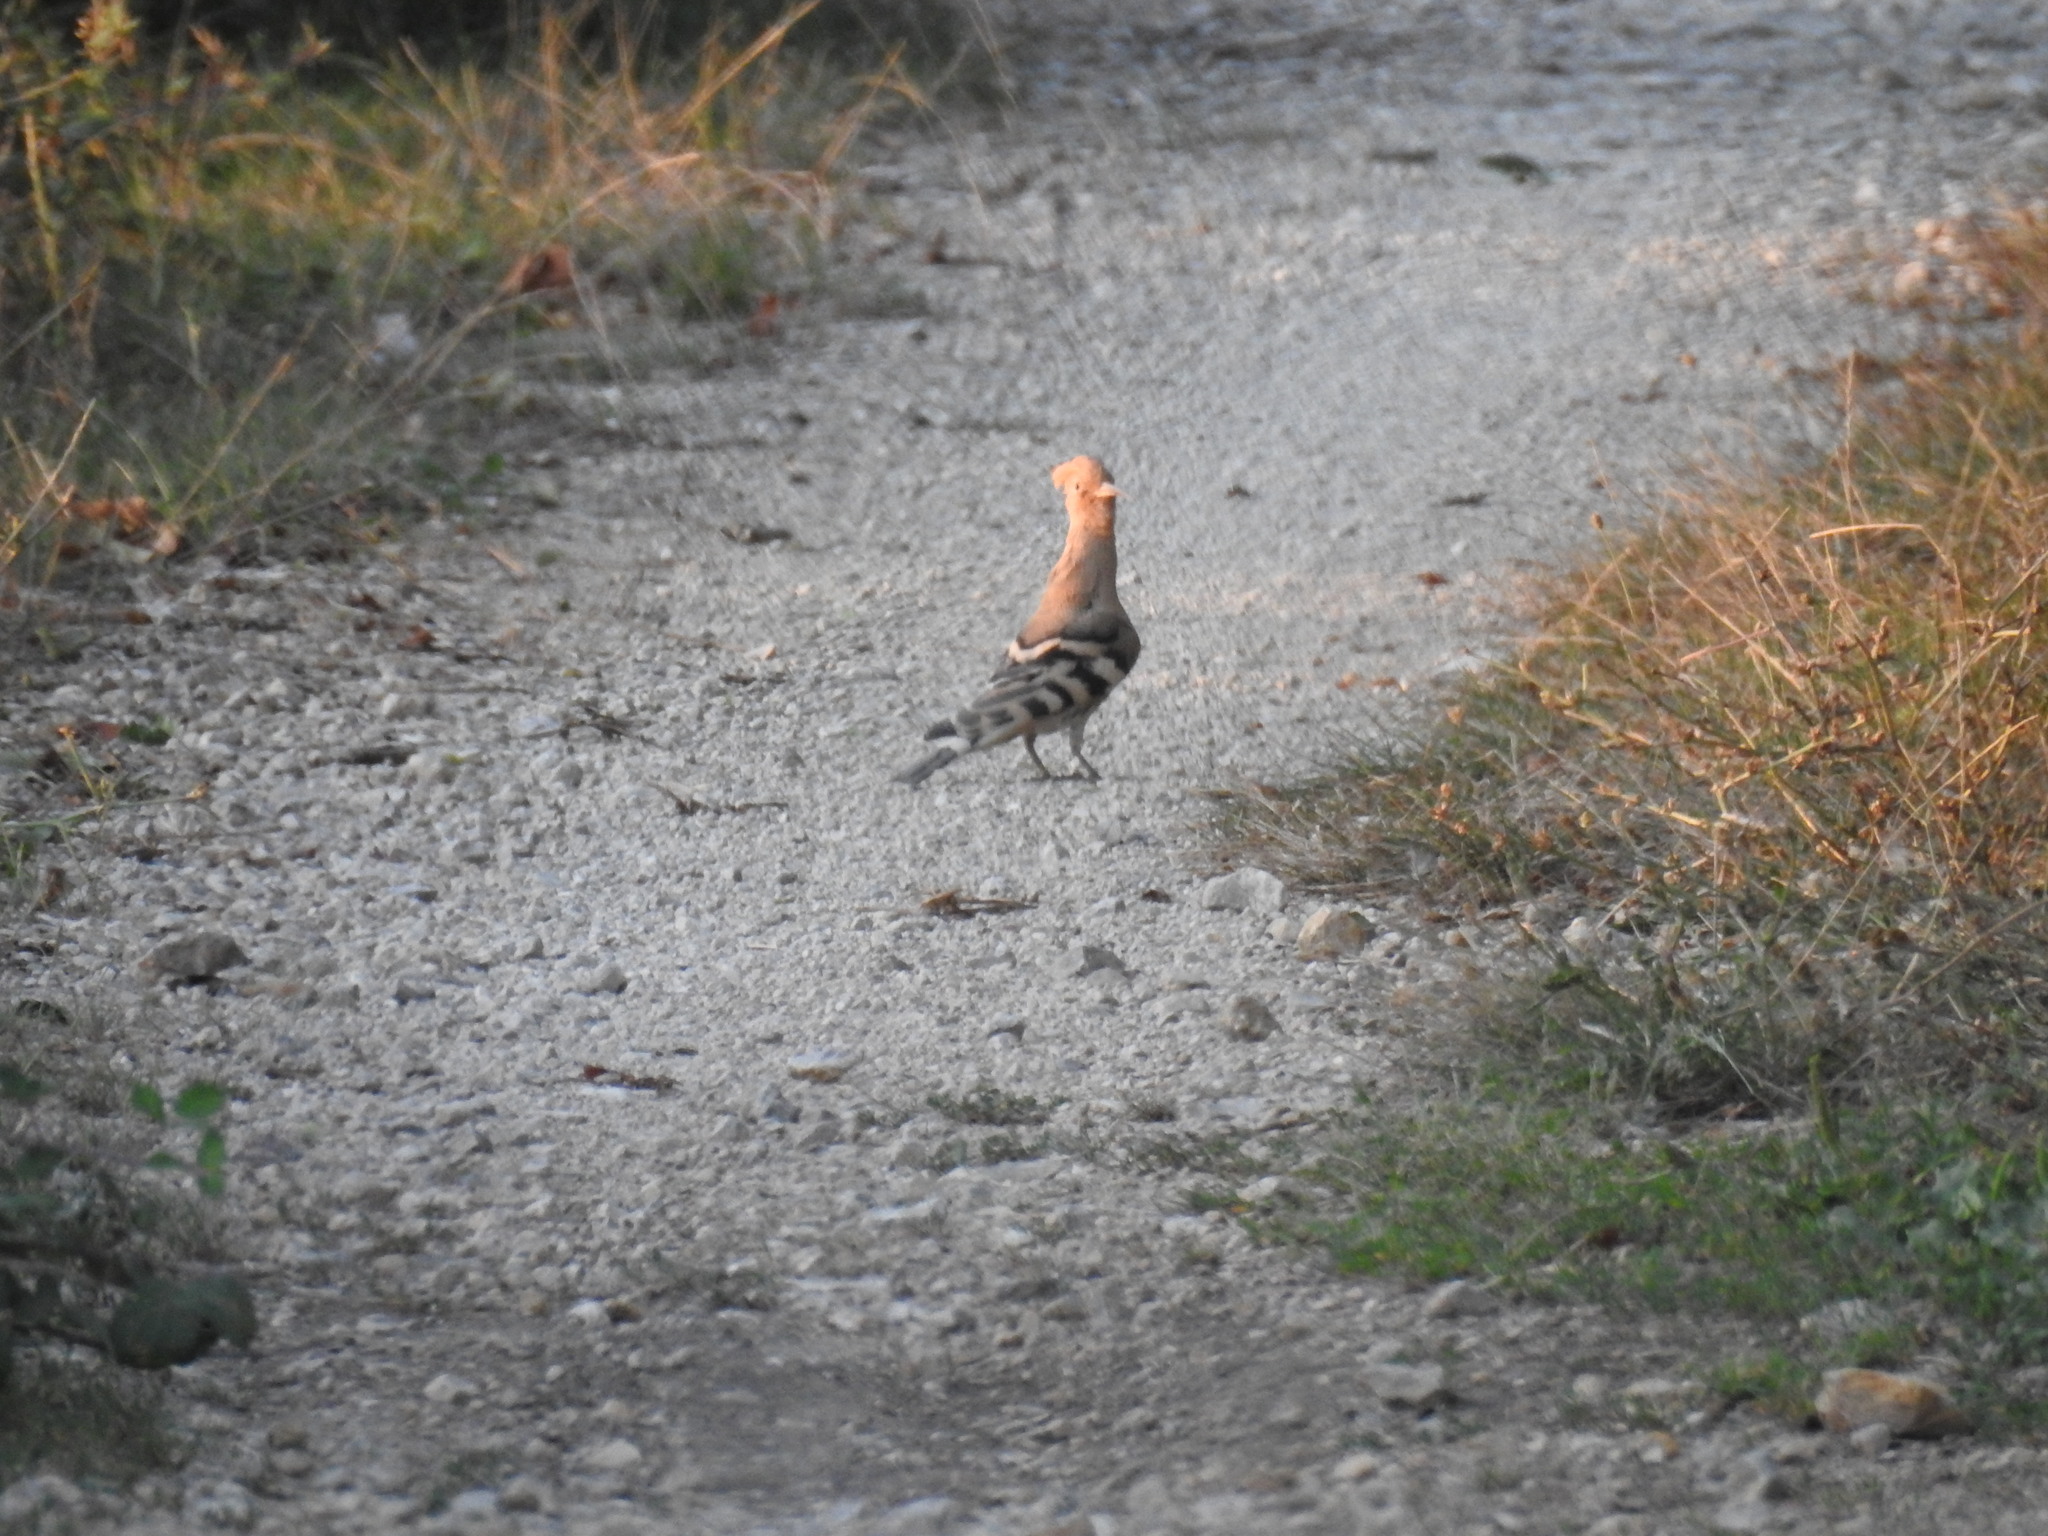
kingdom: Animalia
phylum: Chordata
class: Aves
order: Bucerotiformes
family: Upupidae
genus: Upupa
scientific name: Upupa epops
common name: Eurasian hoopoe
